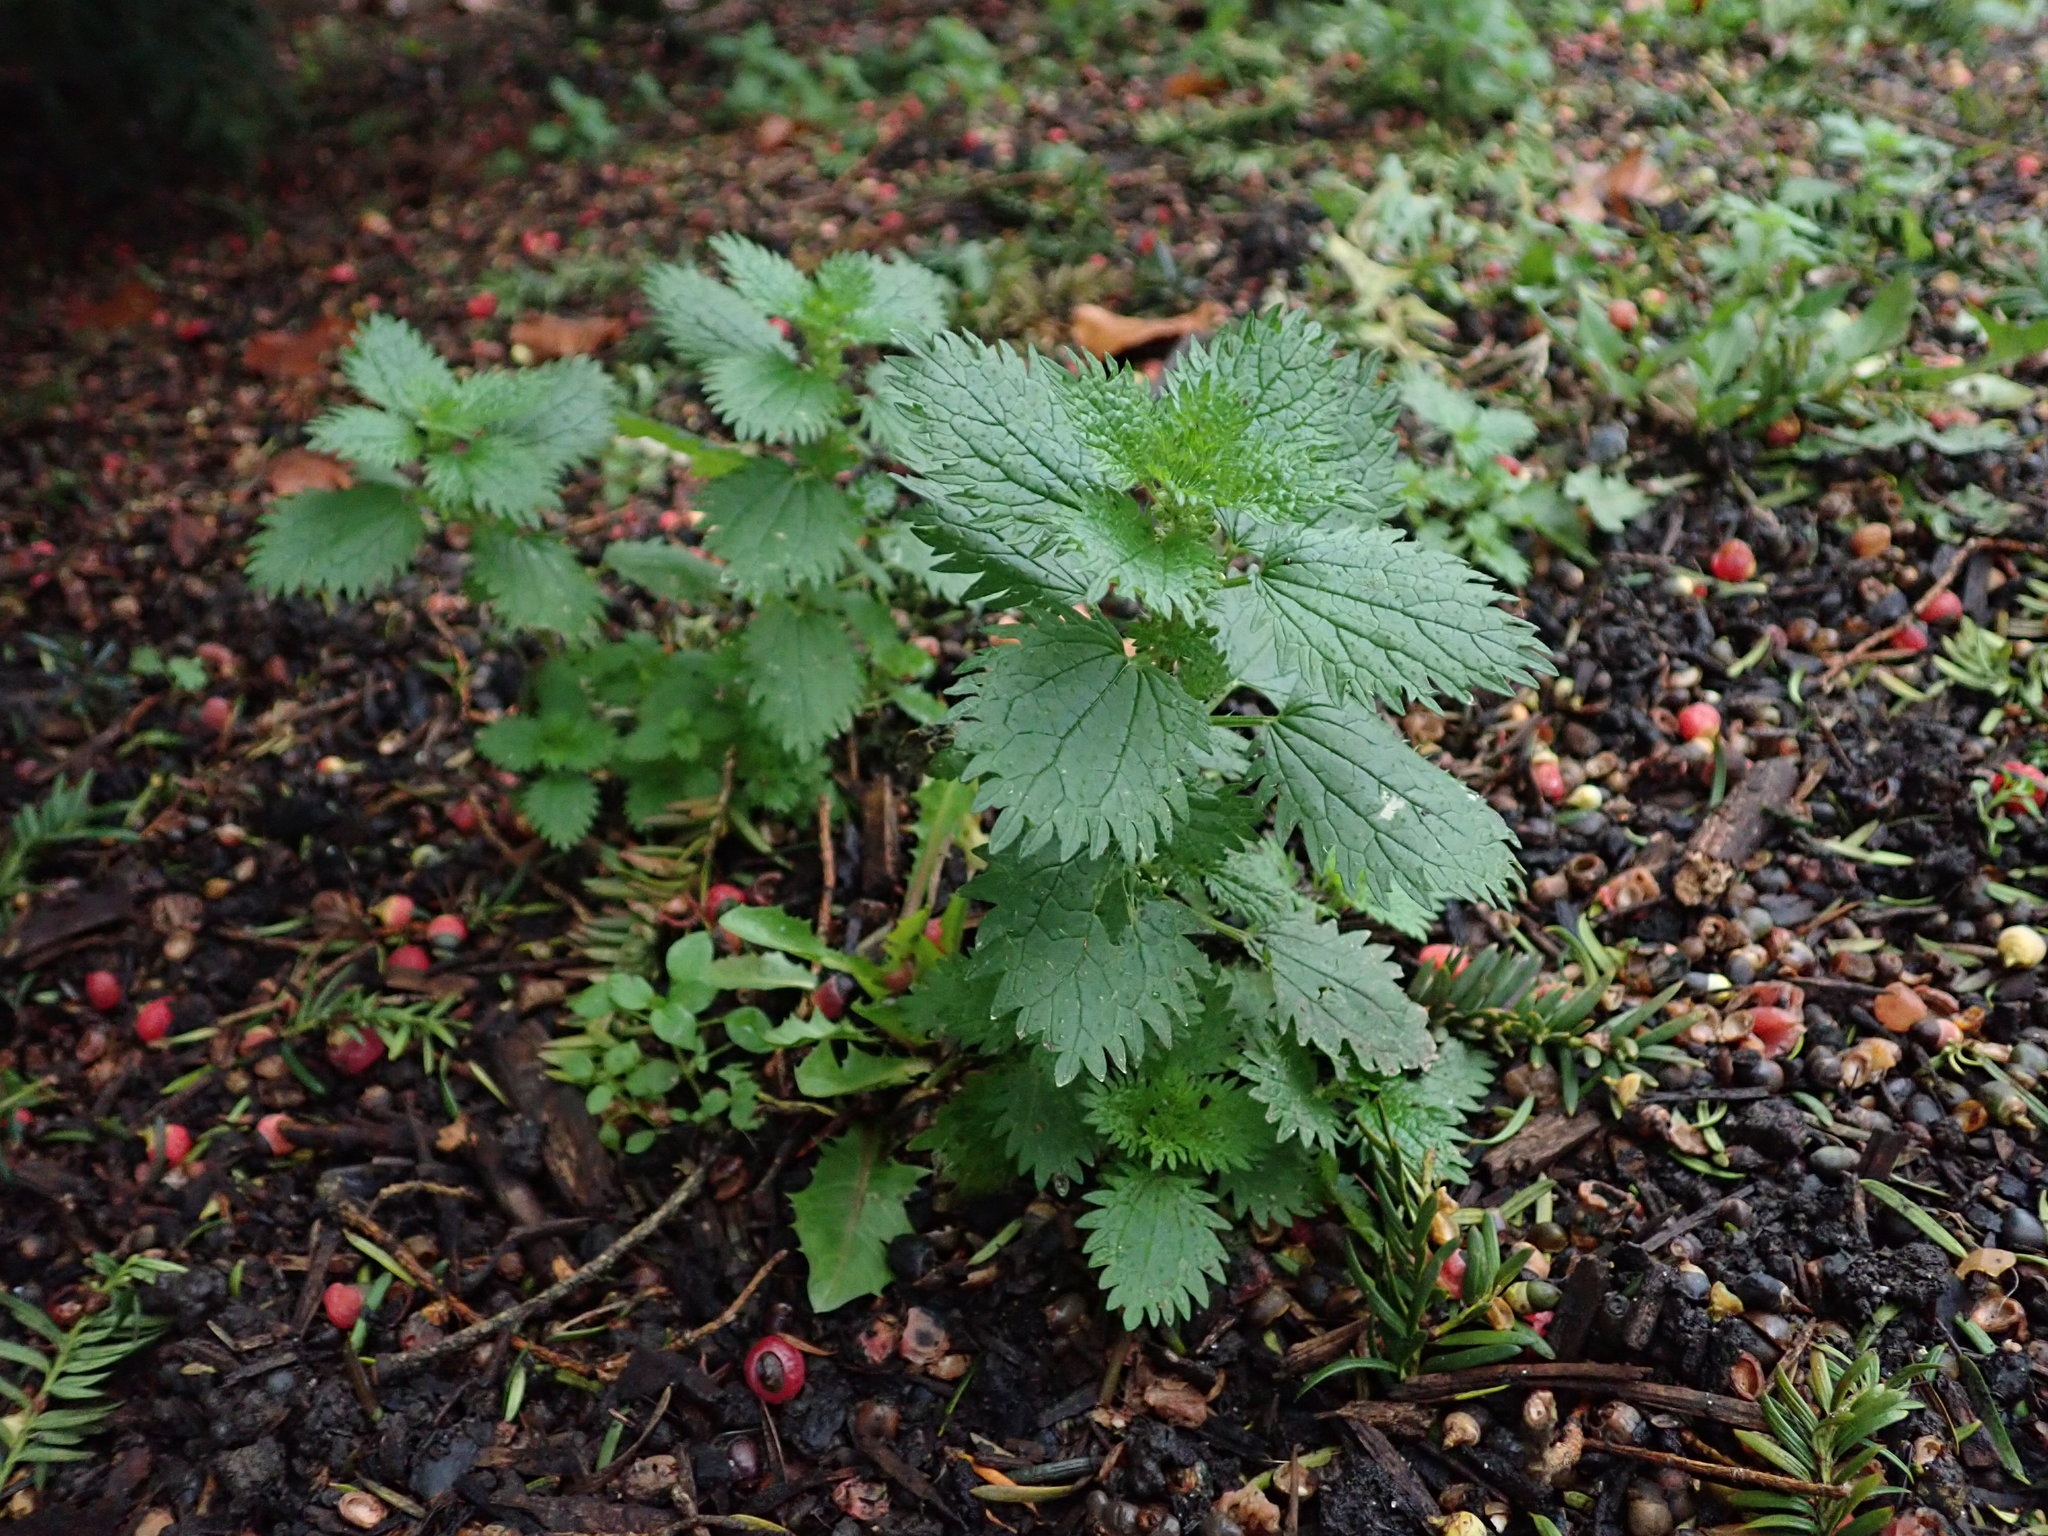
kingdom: Plantae
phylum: Tracheophyta
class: Magnoliopsida
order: Rosales
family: Urticaceae
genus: Urtica
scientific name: Urtica urens
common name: Dwarf nettle
